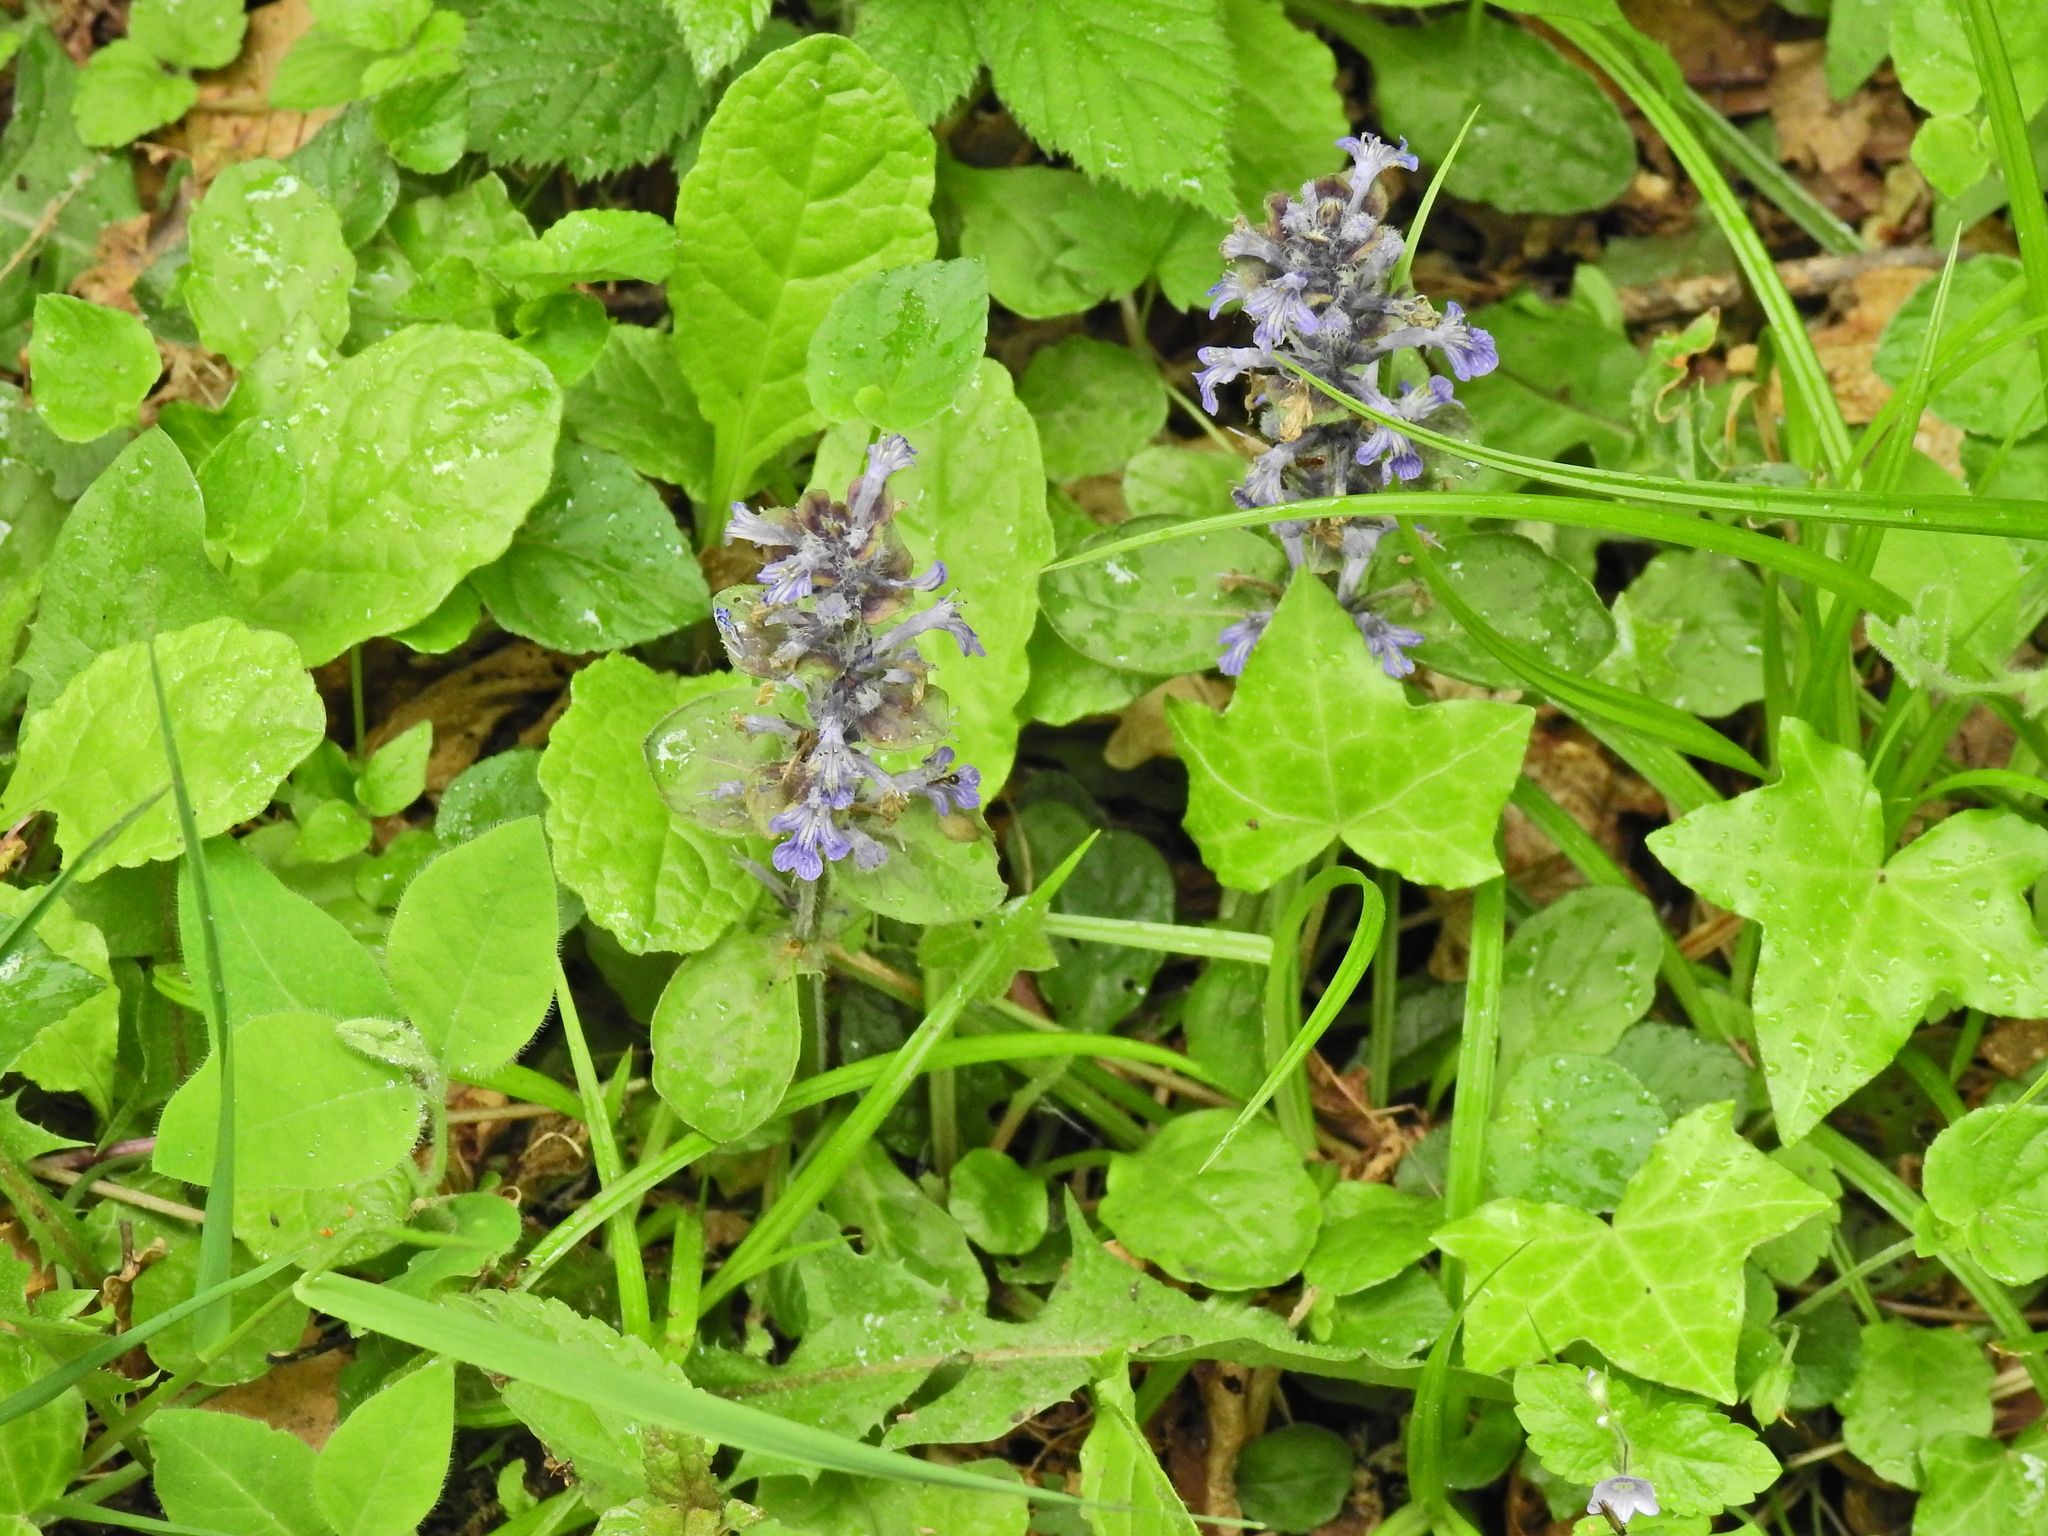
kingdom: Plantae
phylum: Tracheophyta
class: Magnoliopsida
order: Lamiales
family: Lamiaceae
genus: Ajuga
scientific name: Ajuga reptans
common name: Bugle
